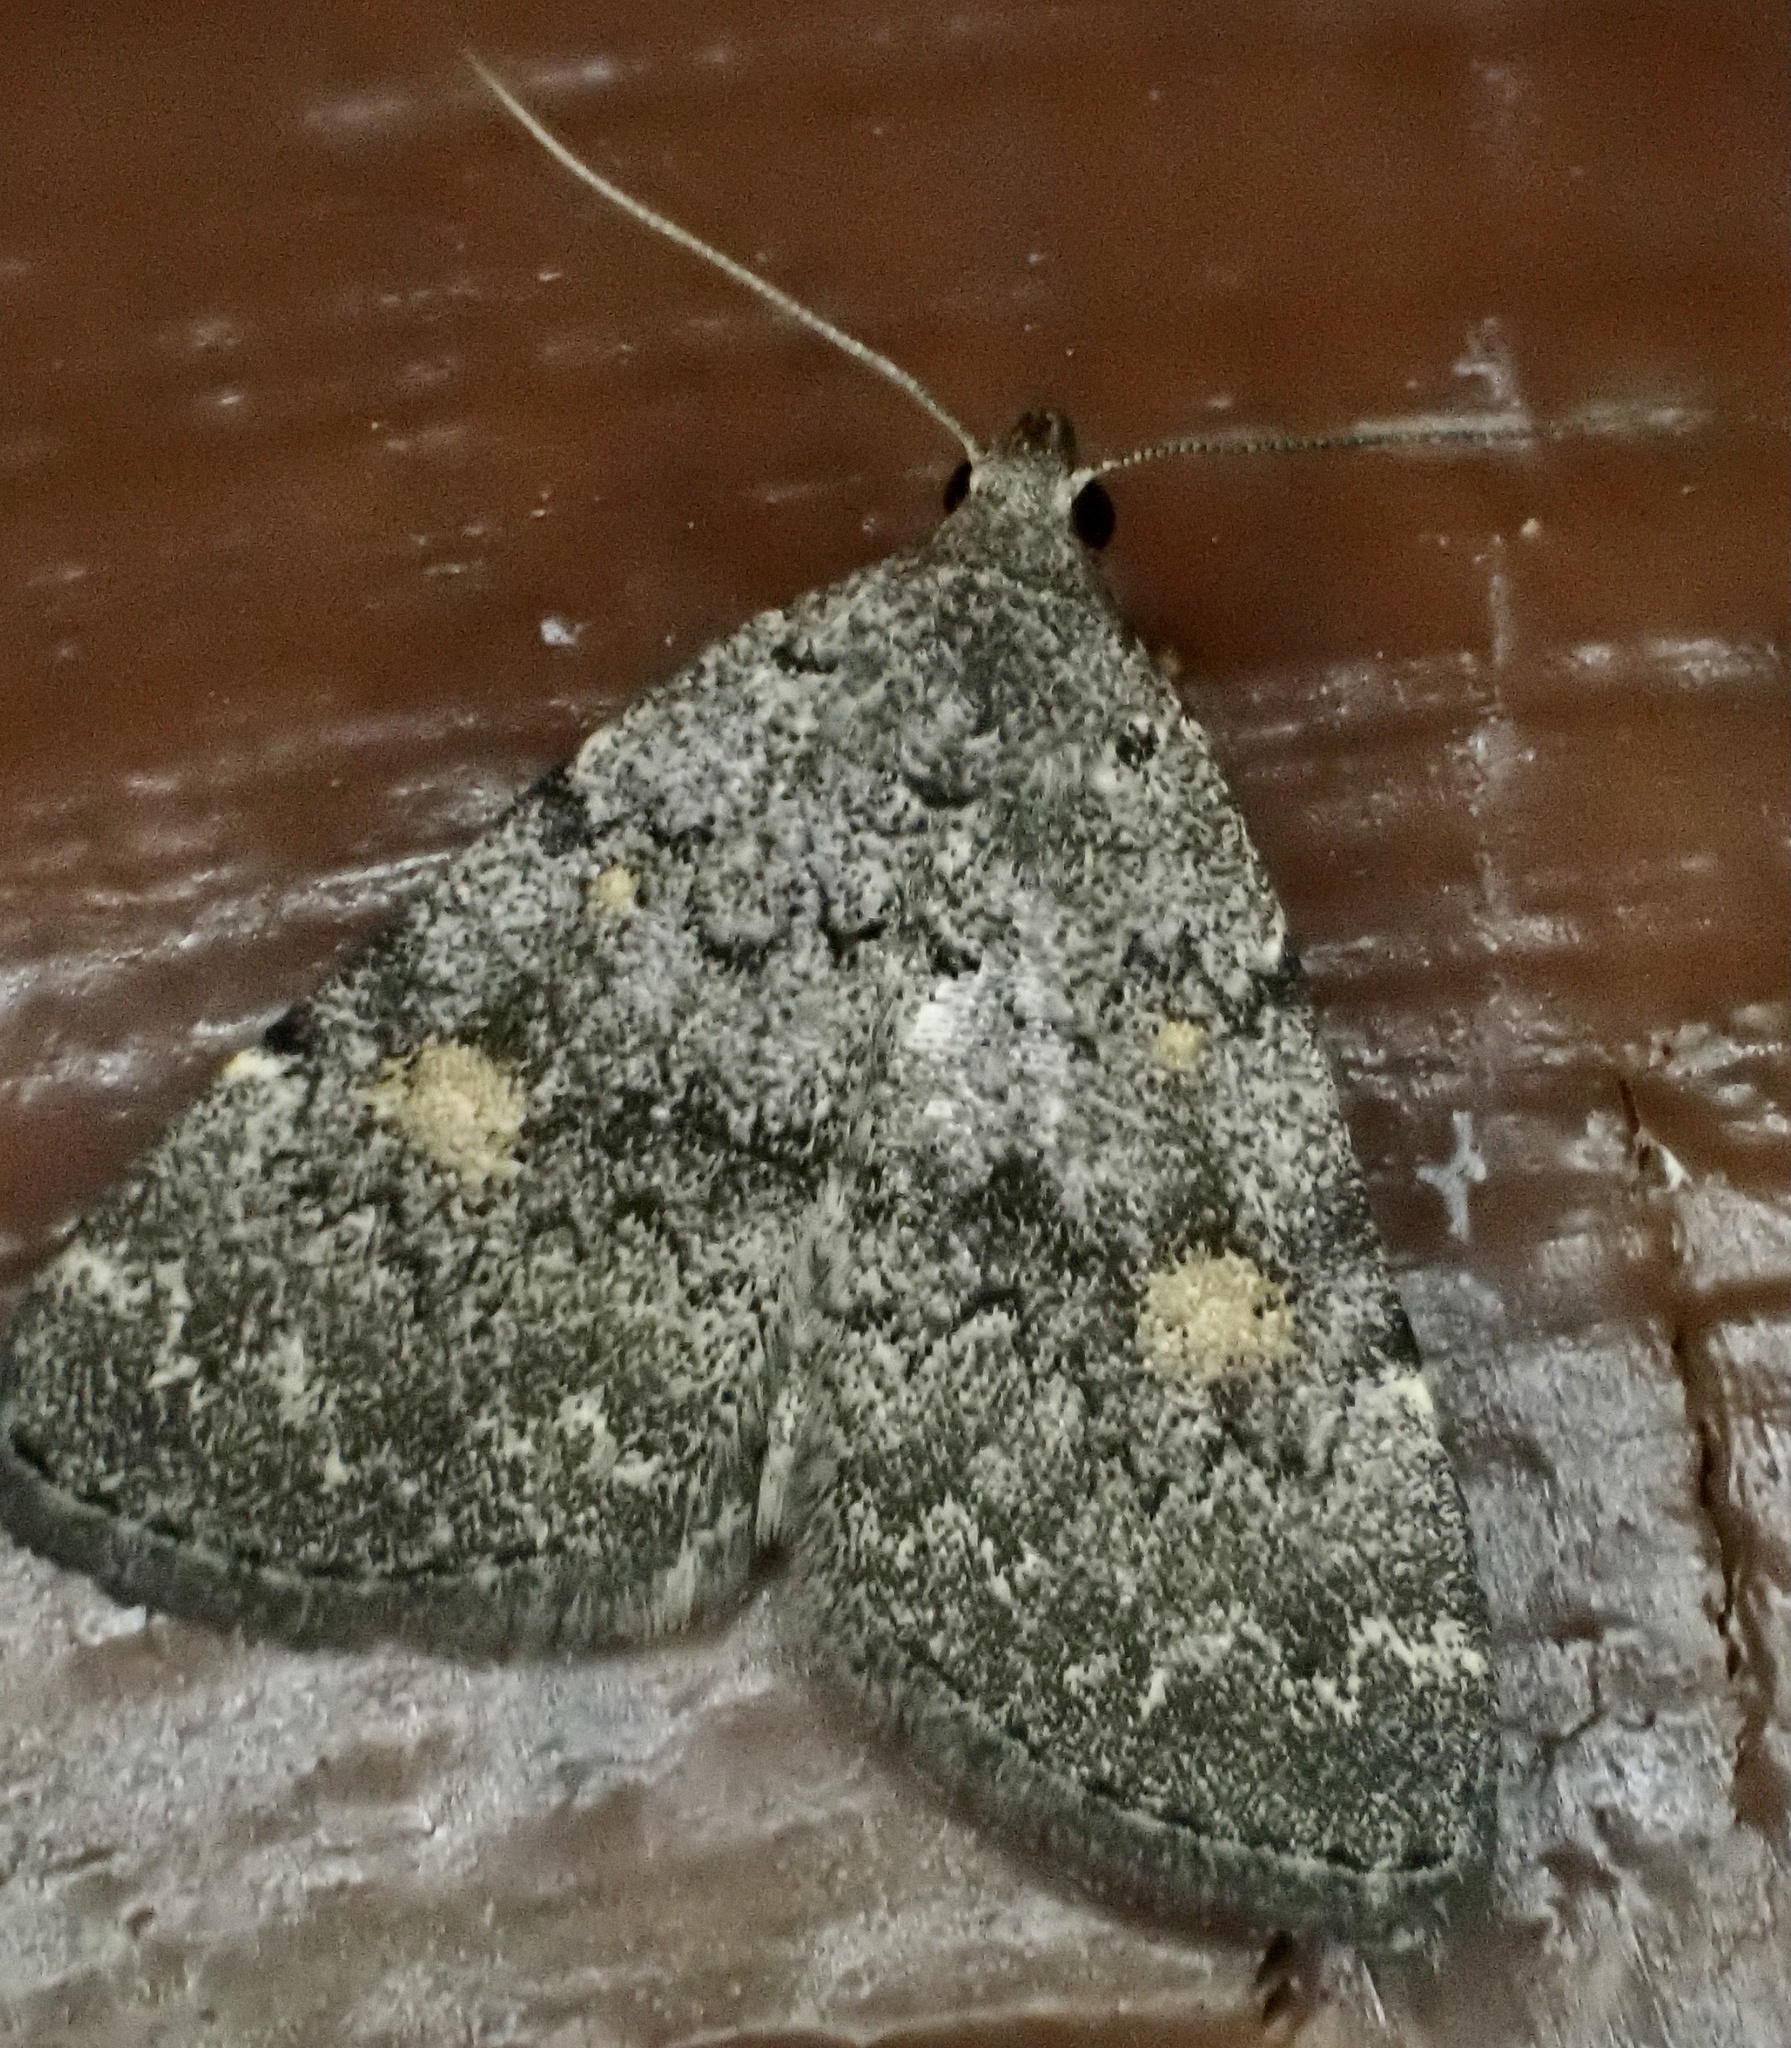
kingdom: Animalia
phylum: Arthropoda
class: Insecta
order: Lepidoptera
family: Erebidae
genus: Idia
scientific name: Idia aemula
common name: Common idia moth
